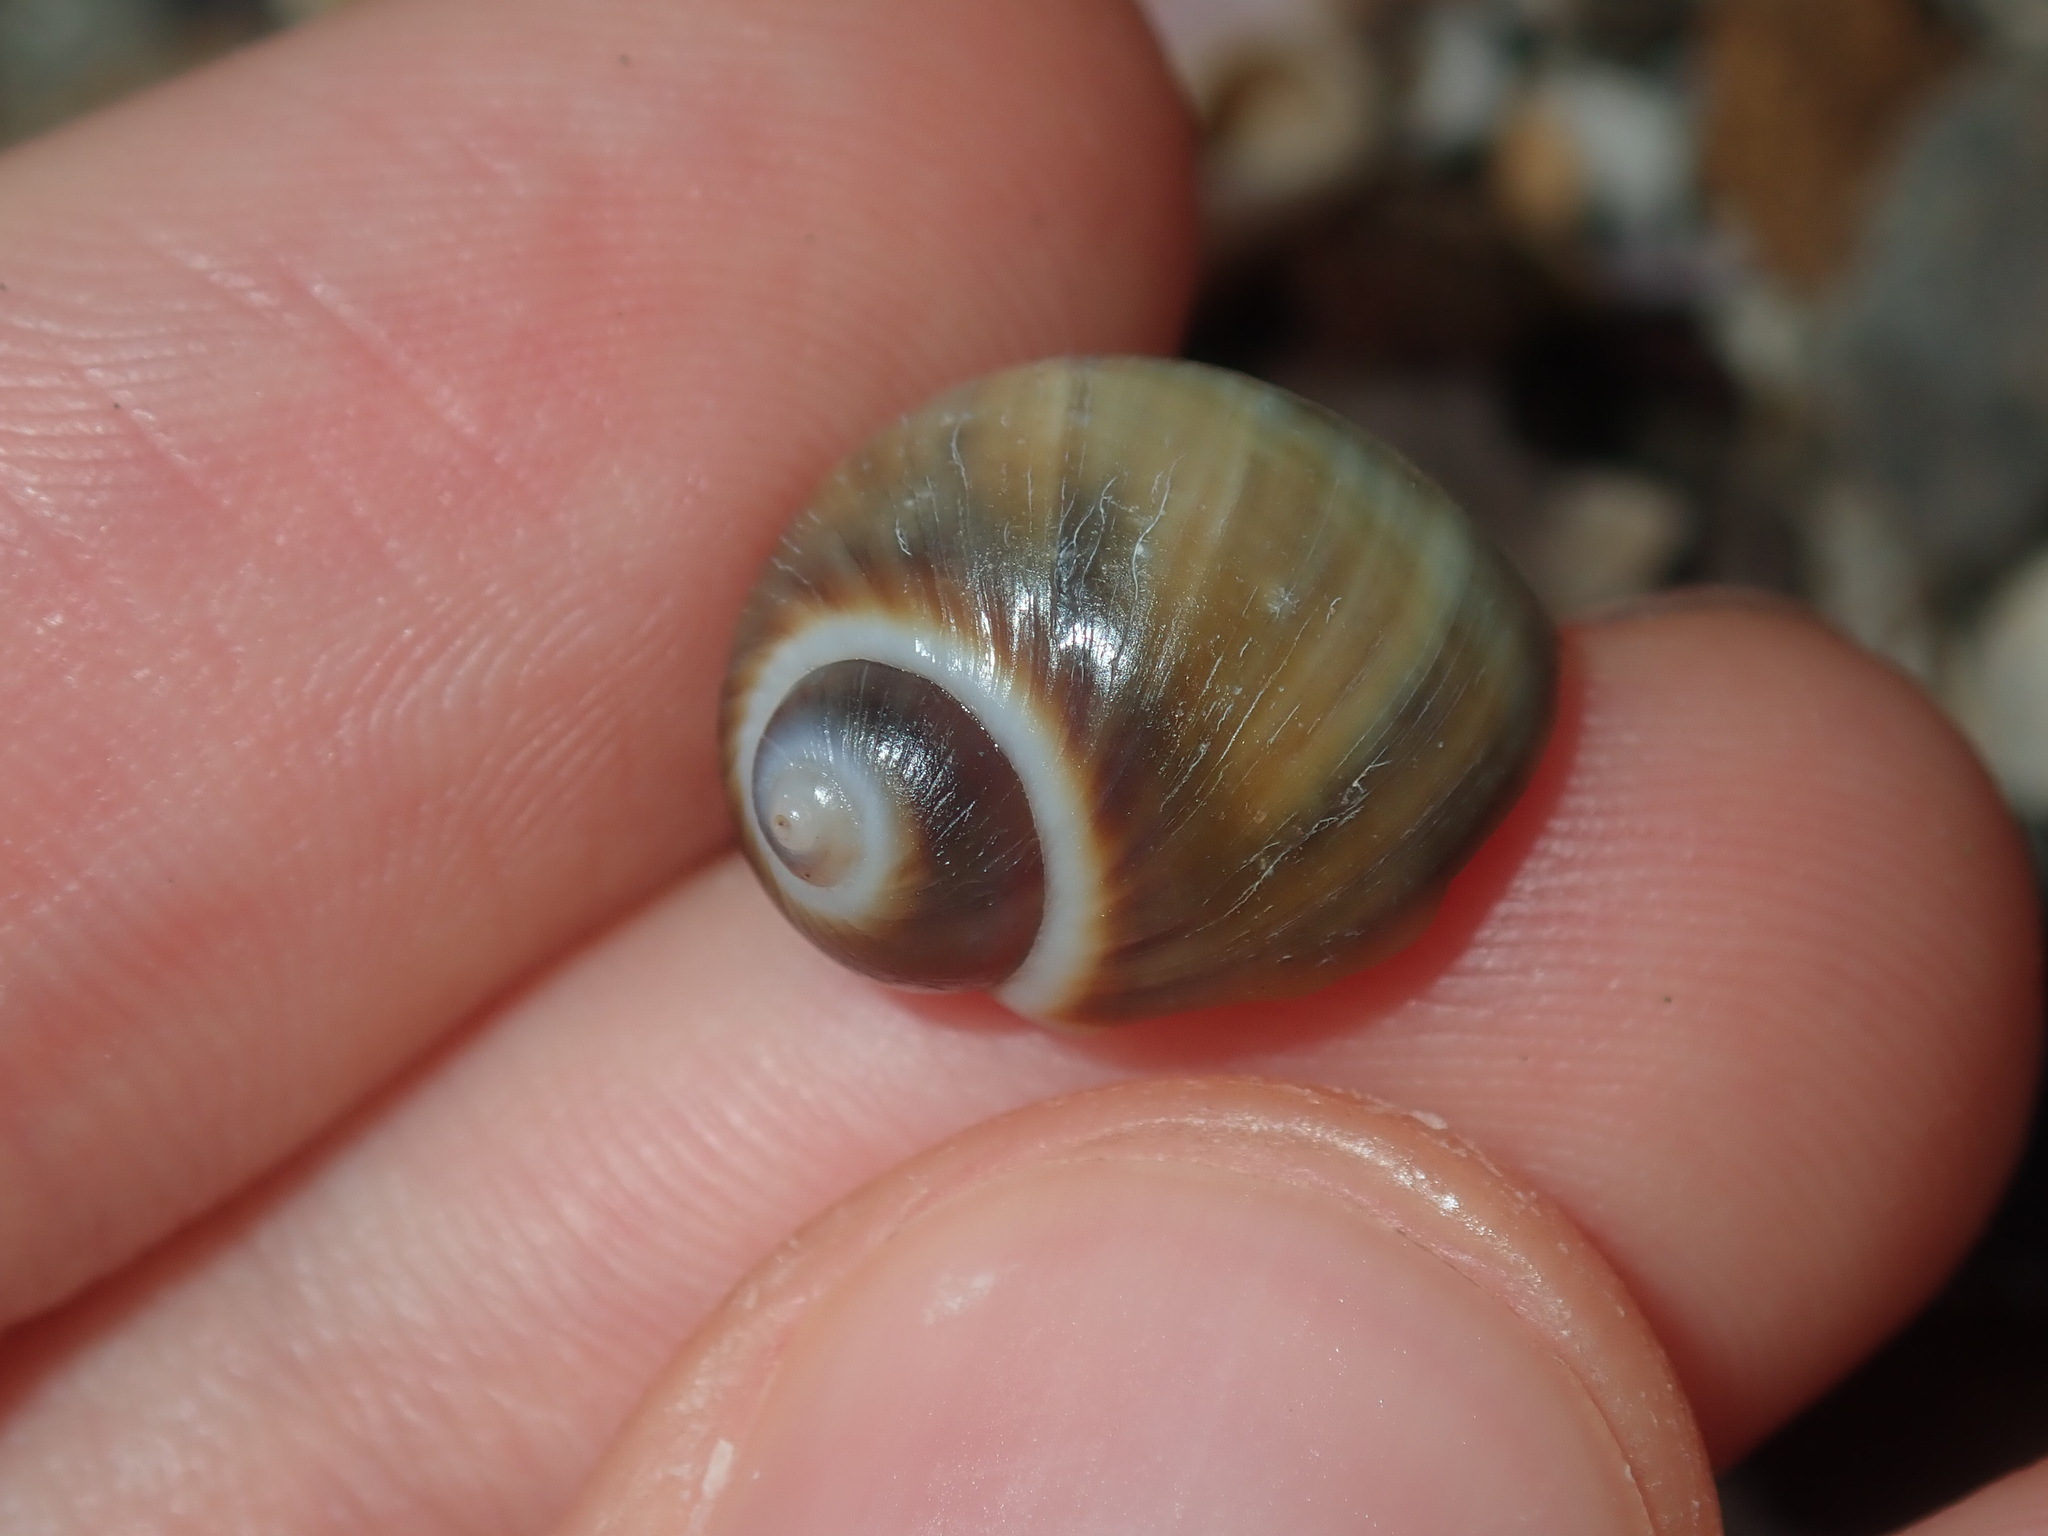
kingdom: Animalia
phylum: Mollusca
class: Gastropoda
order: Littorinimorpha
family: Naticidae
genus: Notocochlis
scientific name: Notocochlis gualteriana
